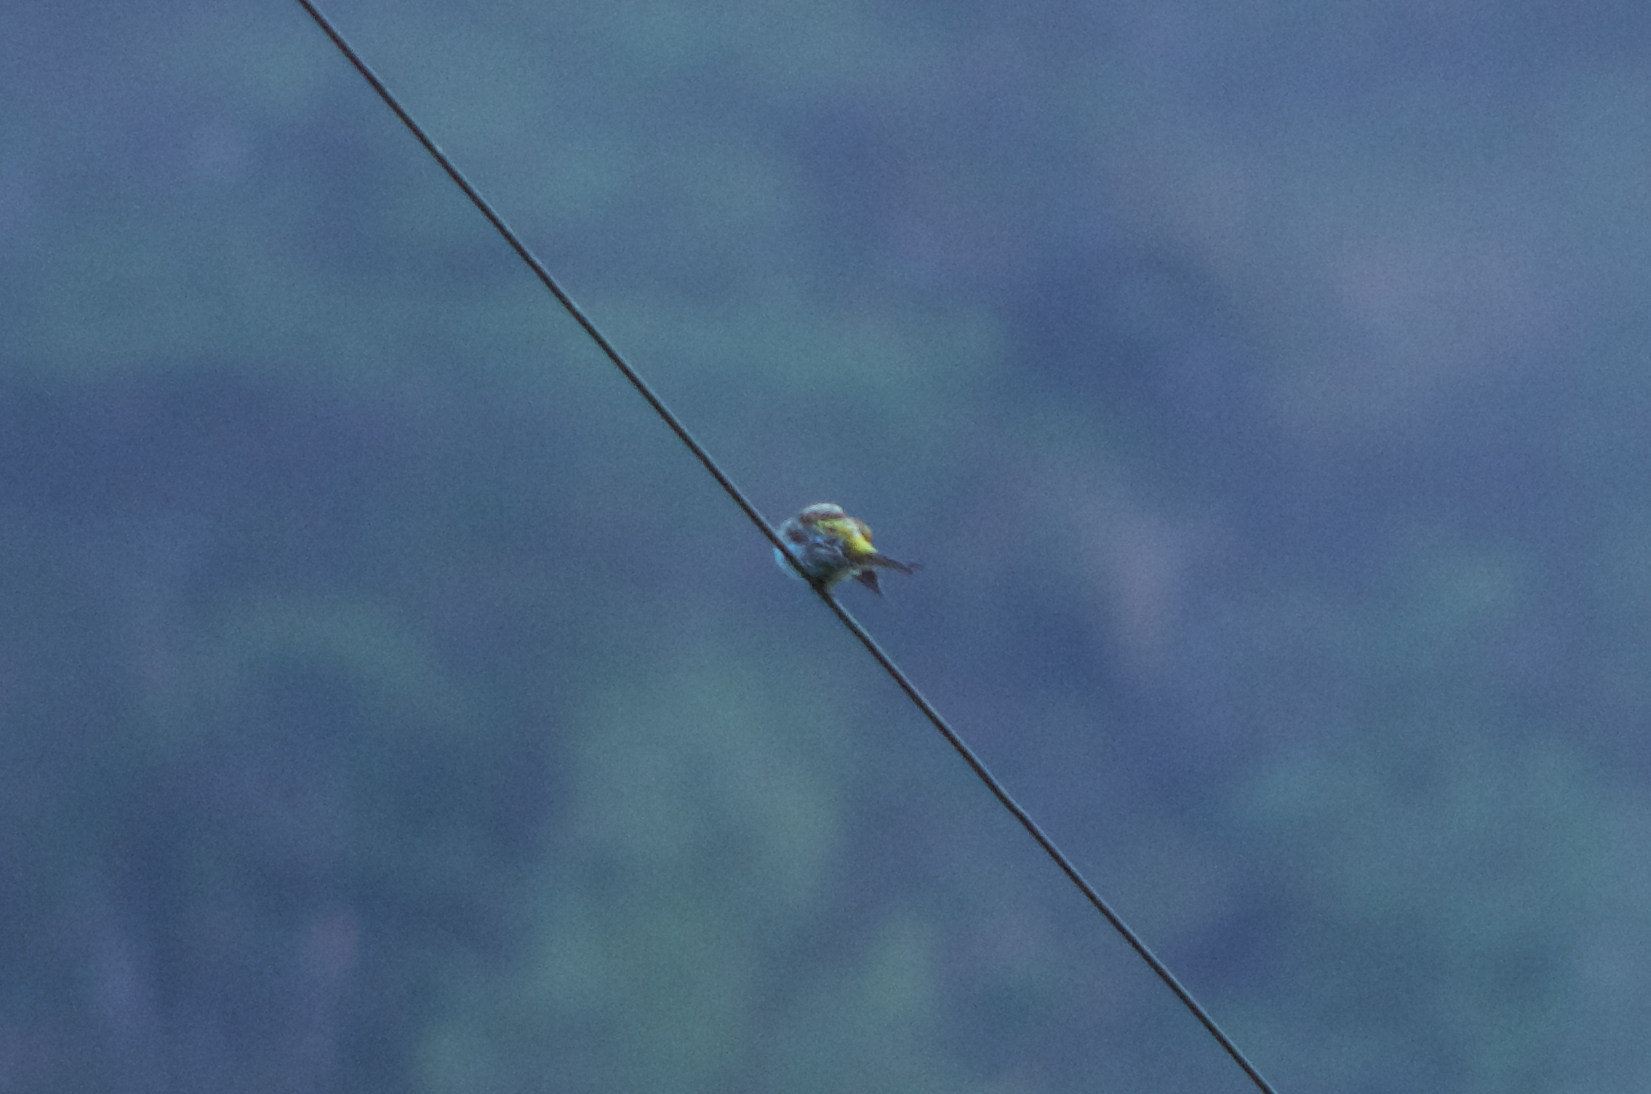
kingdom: Animalia
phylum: Chordata
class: Aves
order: Passeriformes
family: Fringillidae
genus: Serinus
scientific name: Serinus serinus
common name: European serin
